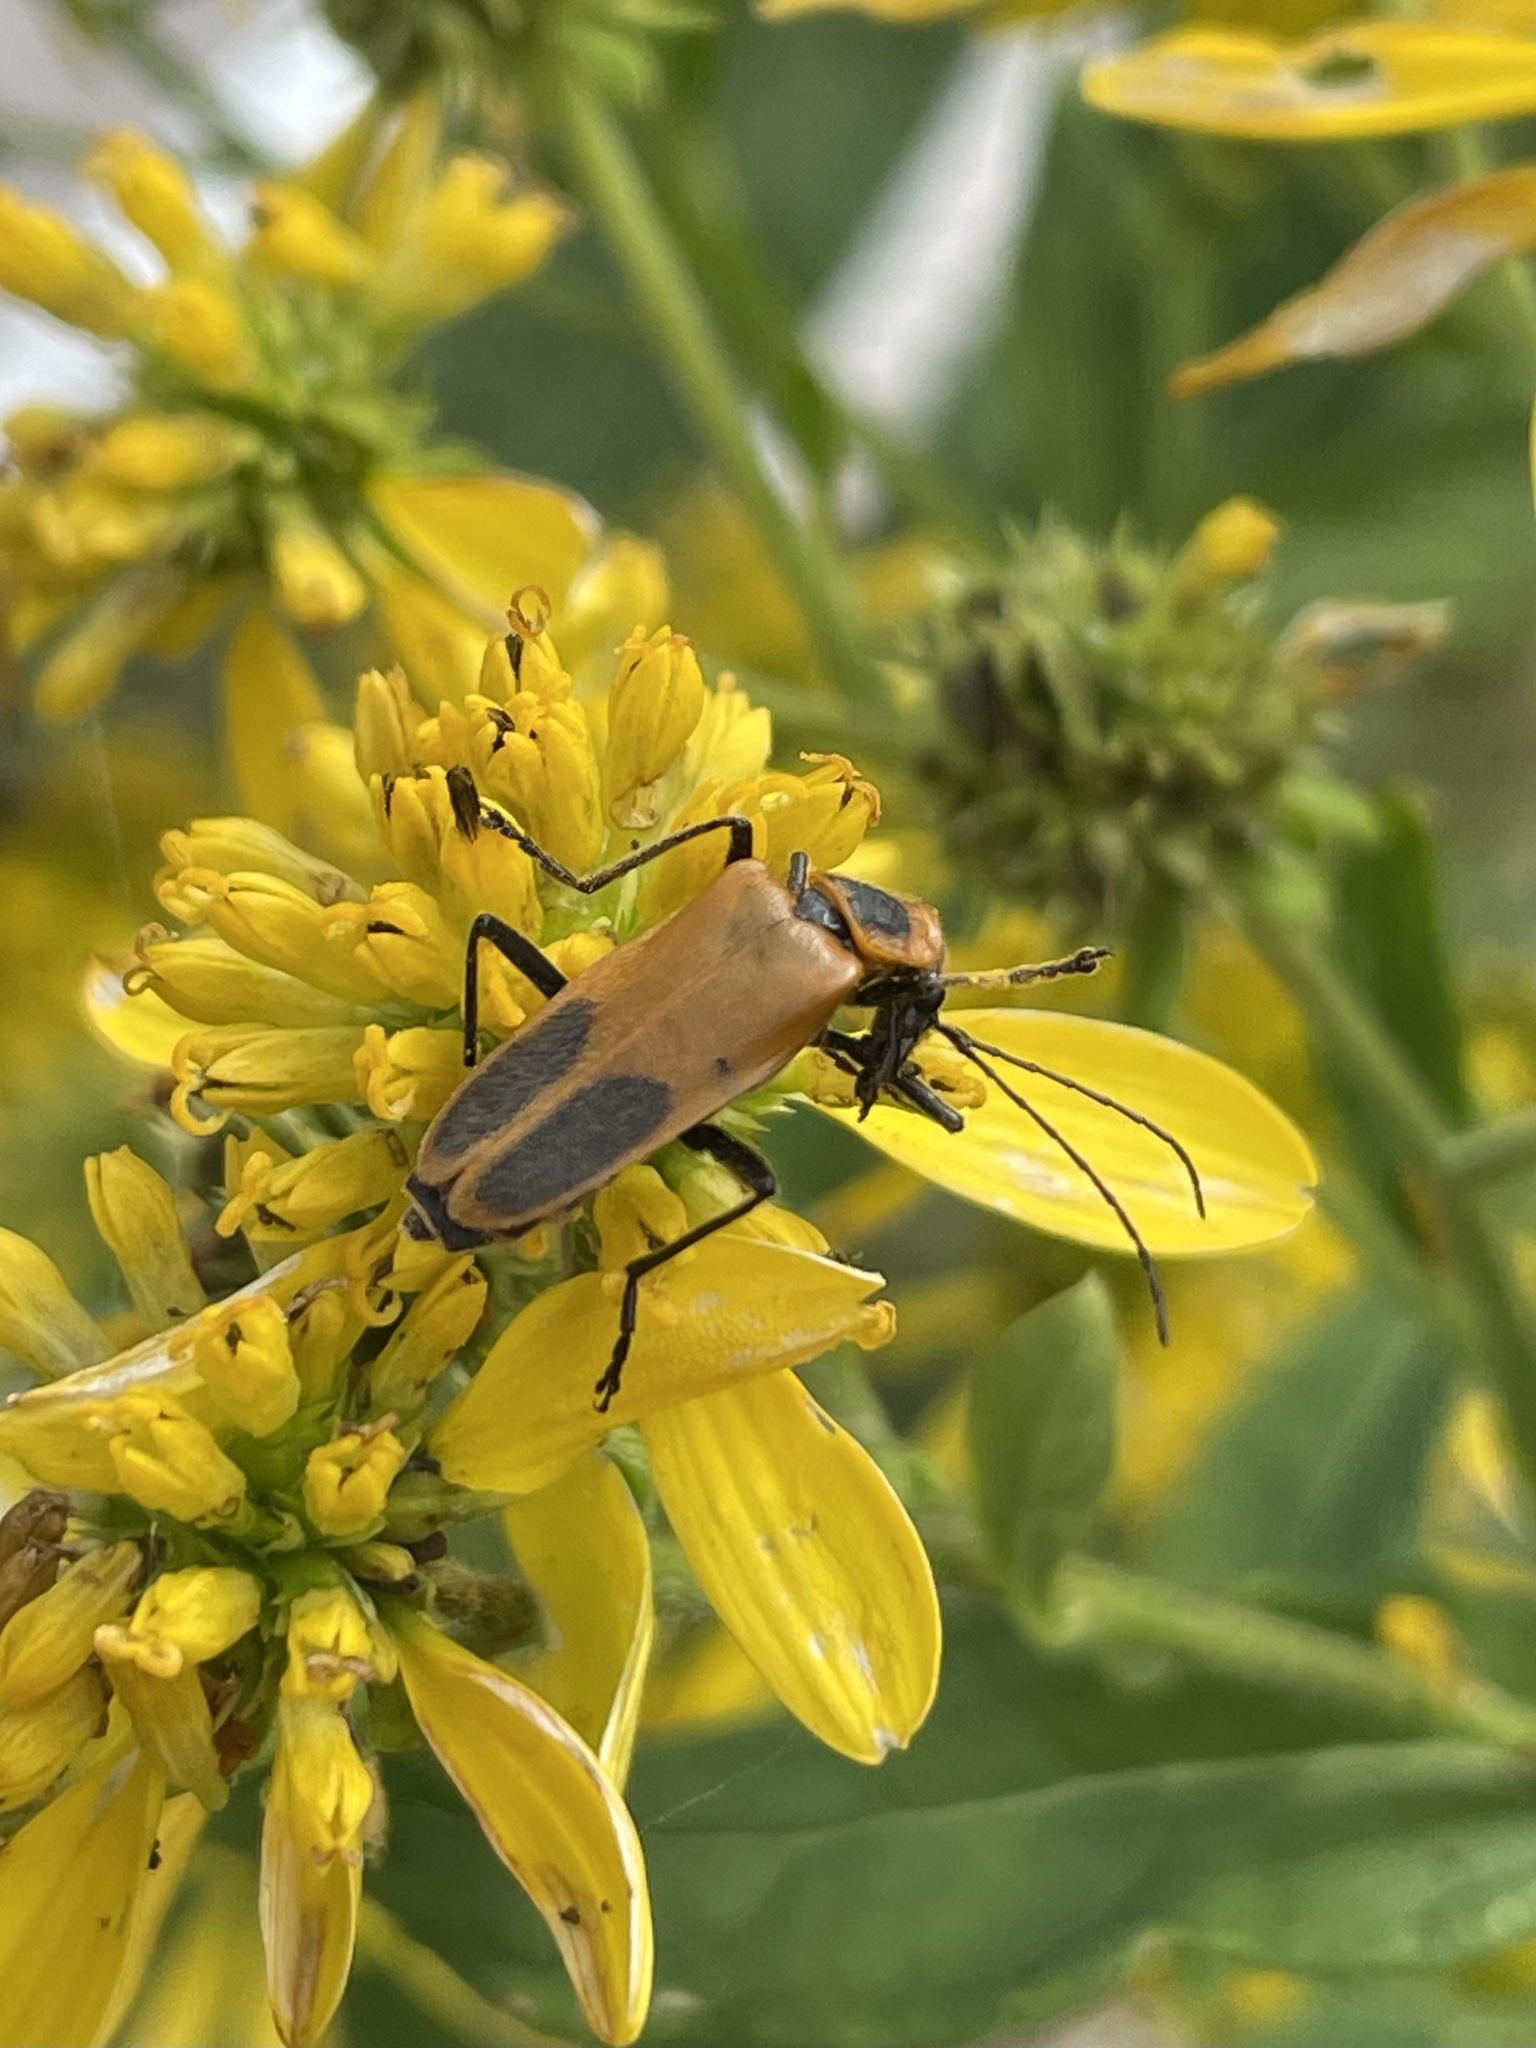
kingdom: Animalia
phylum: Arthropoda
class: Insecta
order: Coleoptera
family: Cantharidae
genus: Chauliognathus
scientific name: Chauliognathus pensylvanicus
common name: Goldenrod soldier beetle
